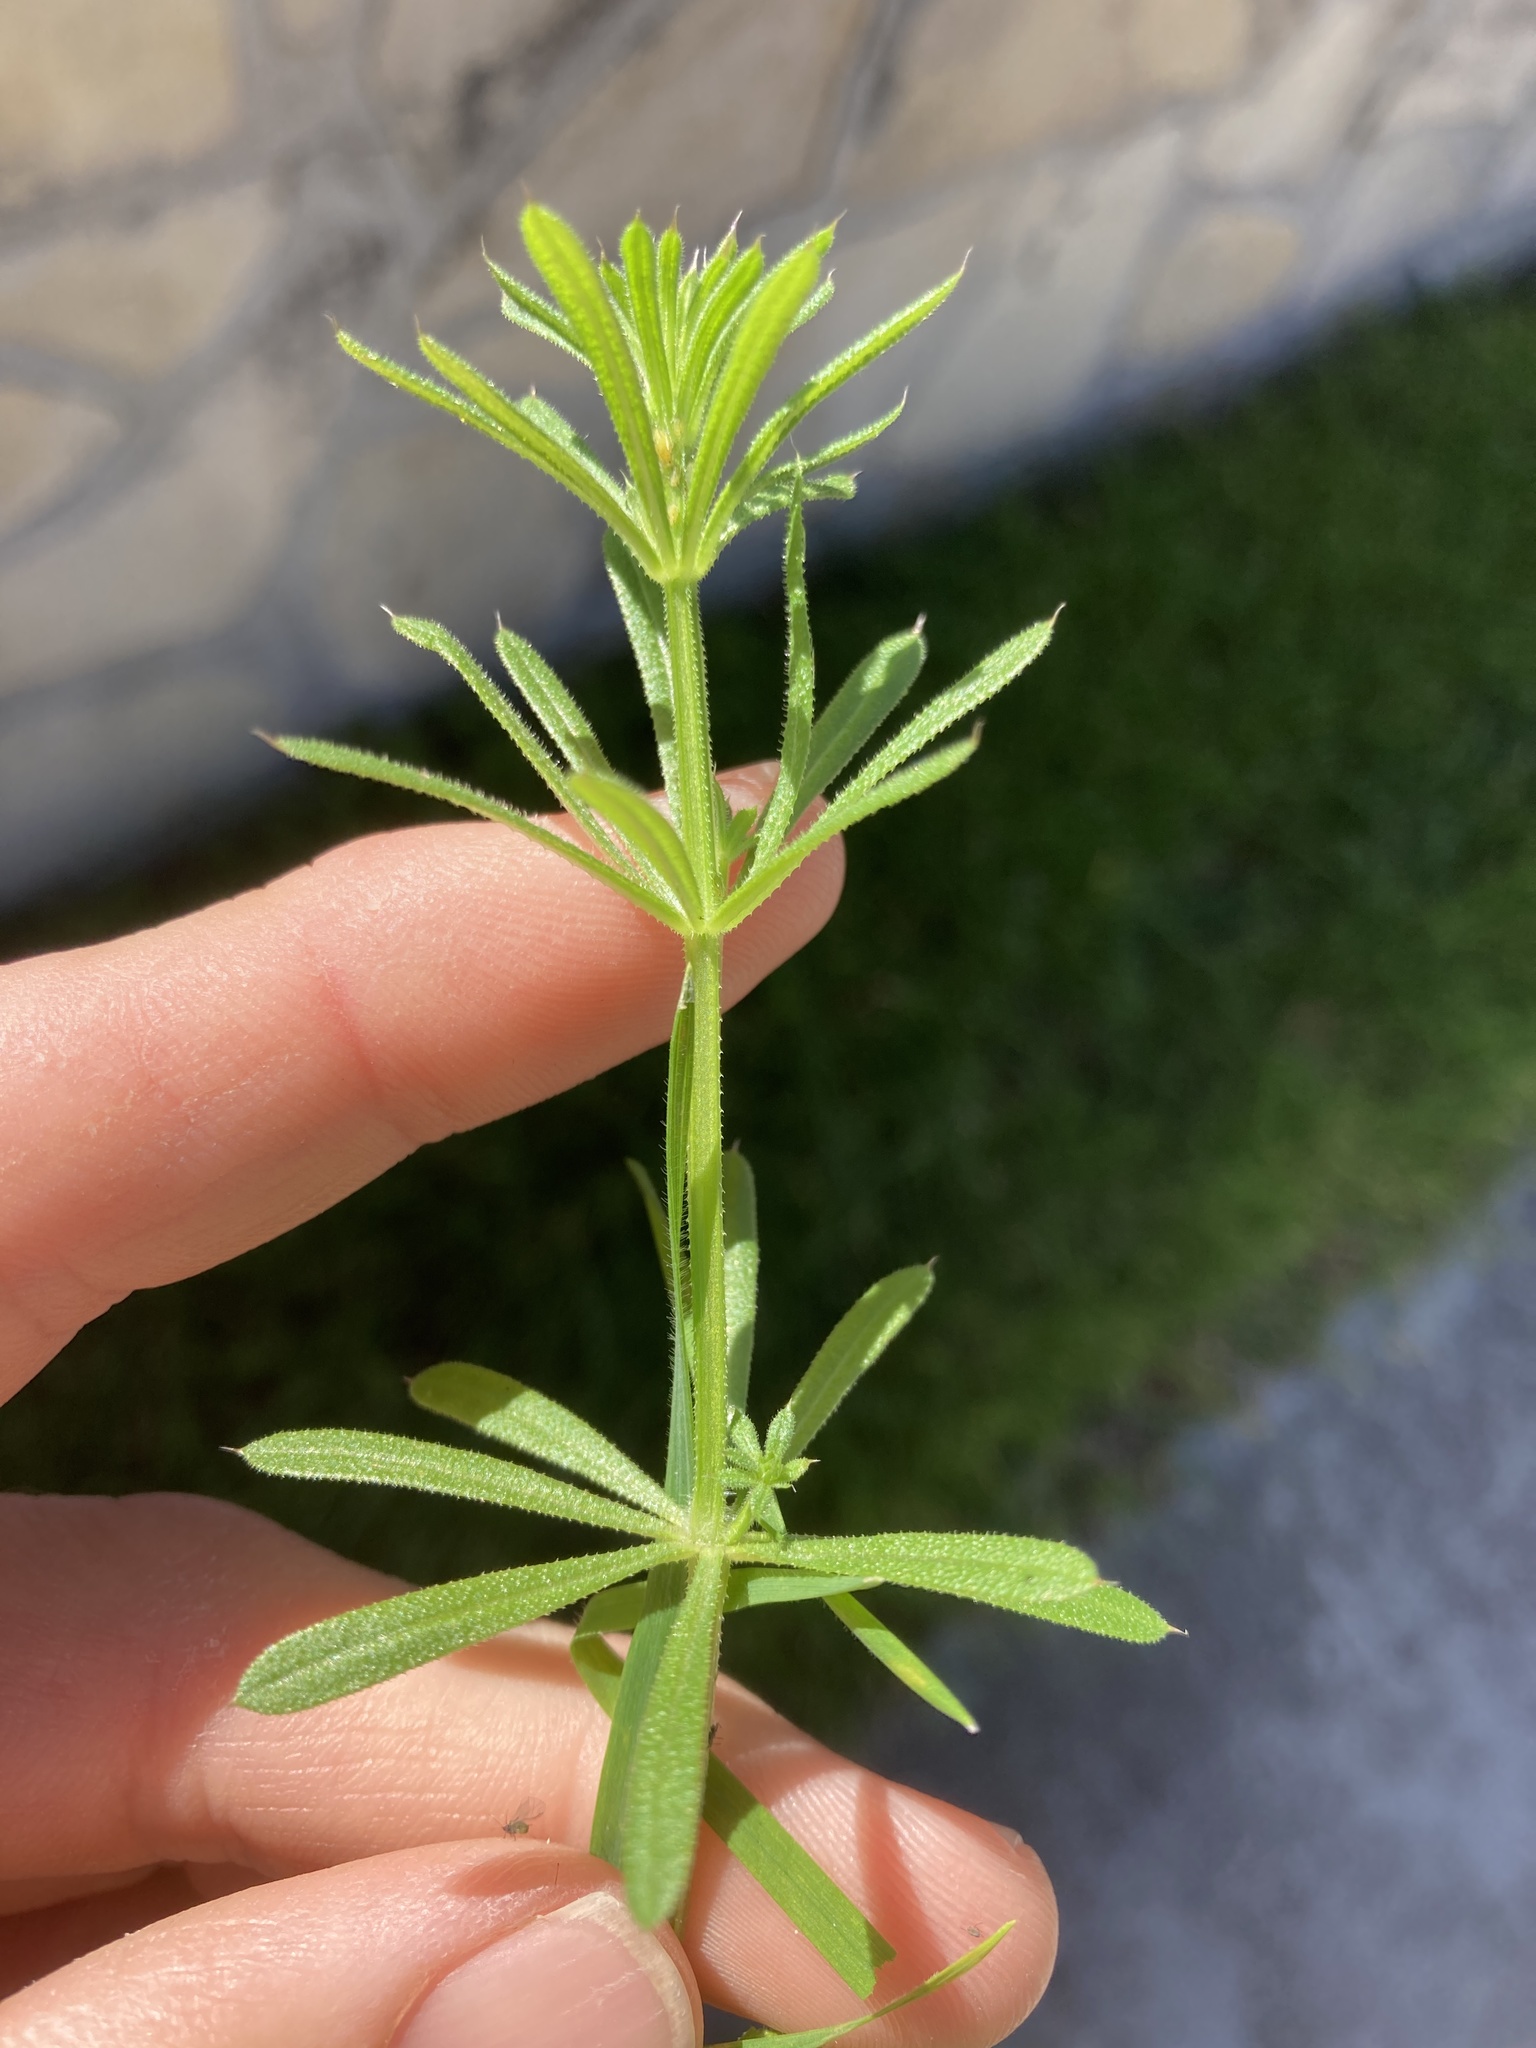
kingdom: Plantae
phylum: Tracheophyta
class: Magnoliopsida
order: Gentianales
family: Rubiaceae
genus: Galium
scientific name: Galium aparine
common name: Cleavers
